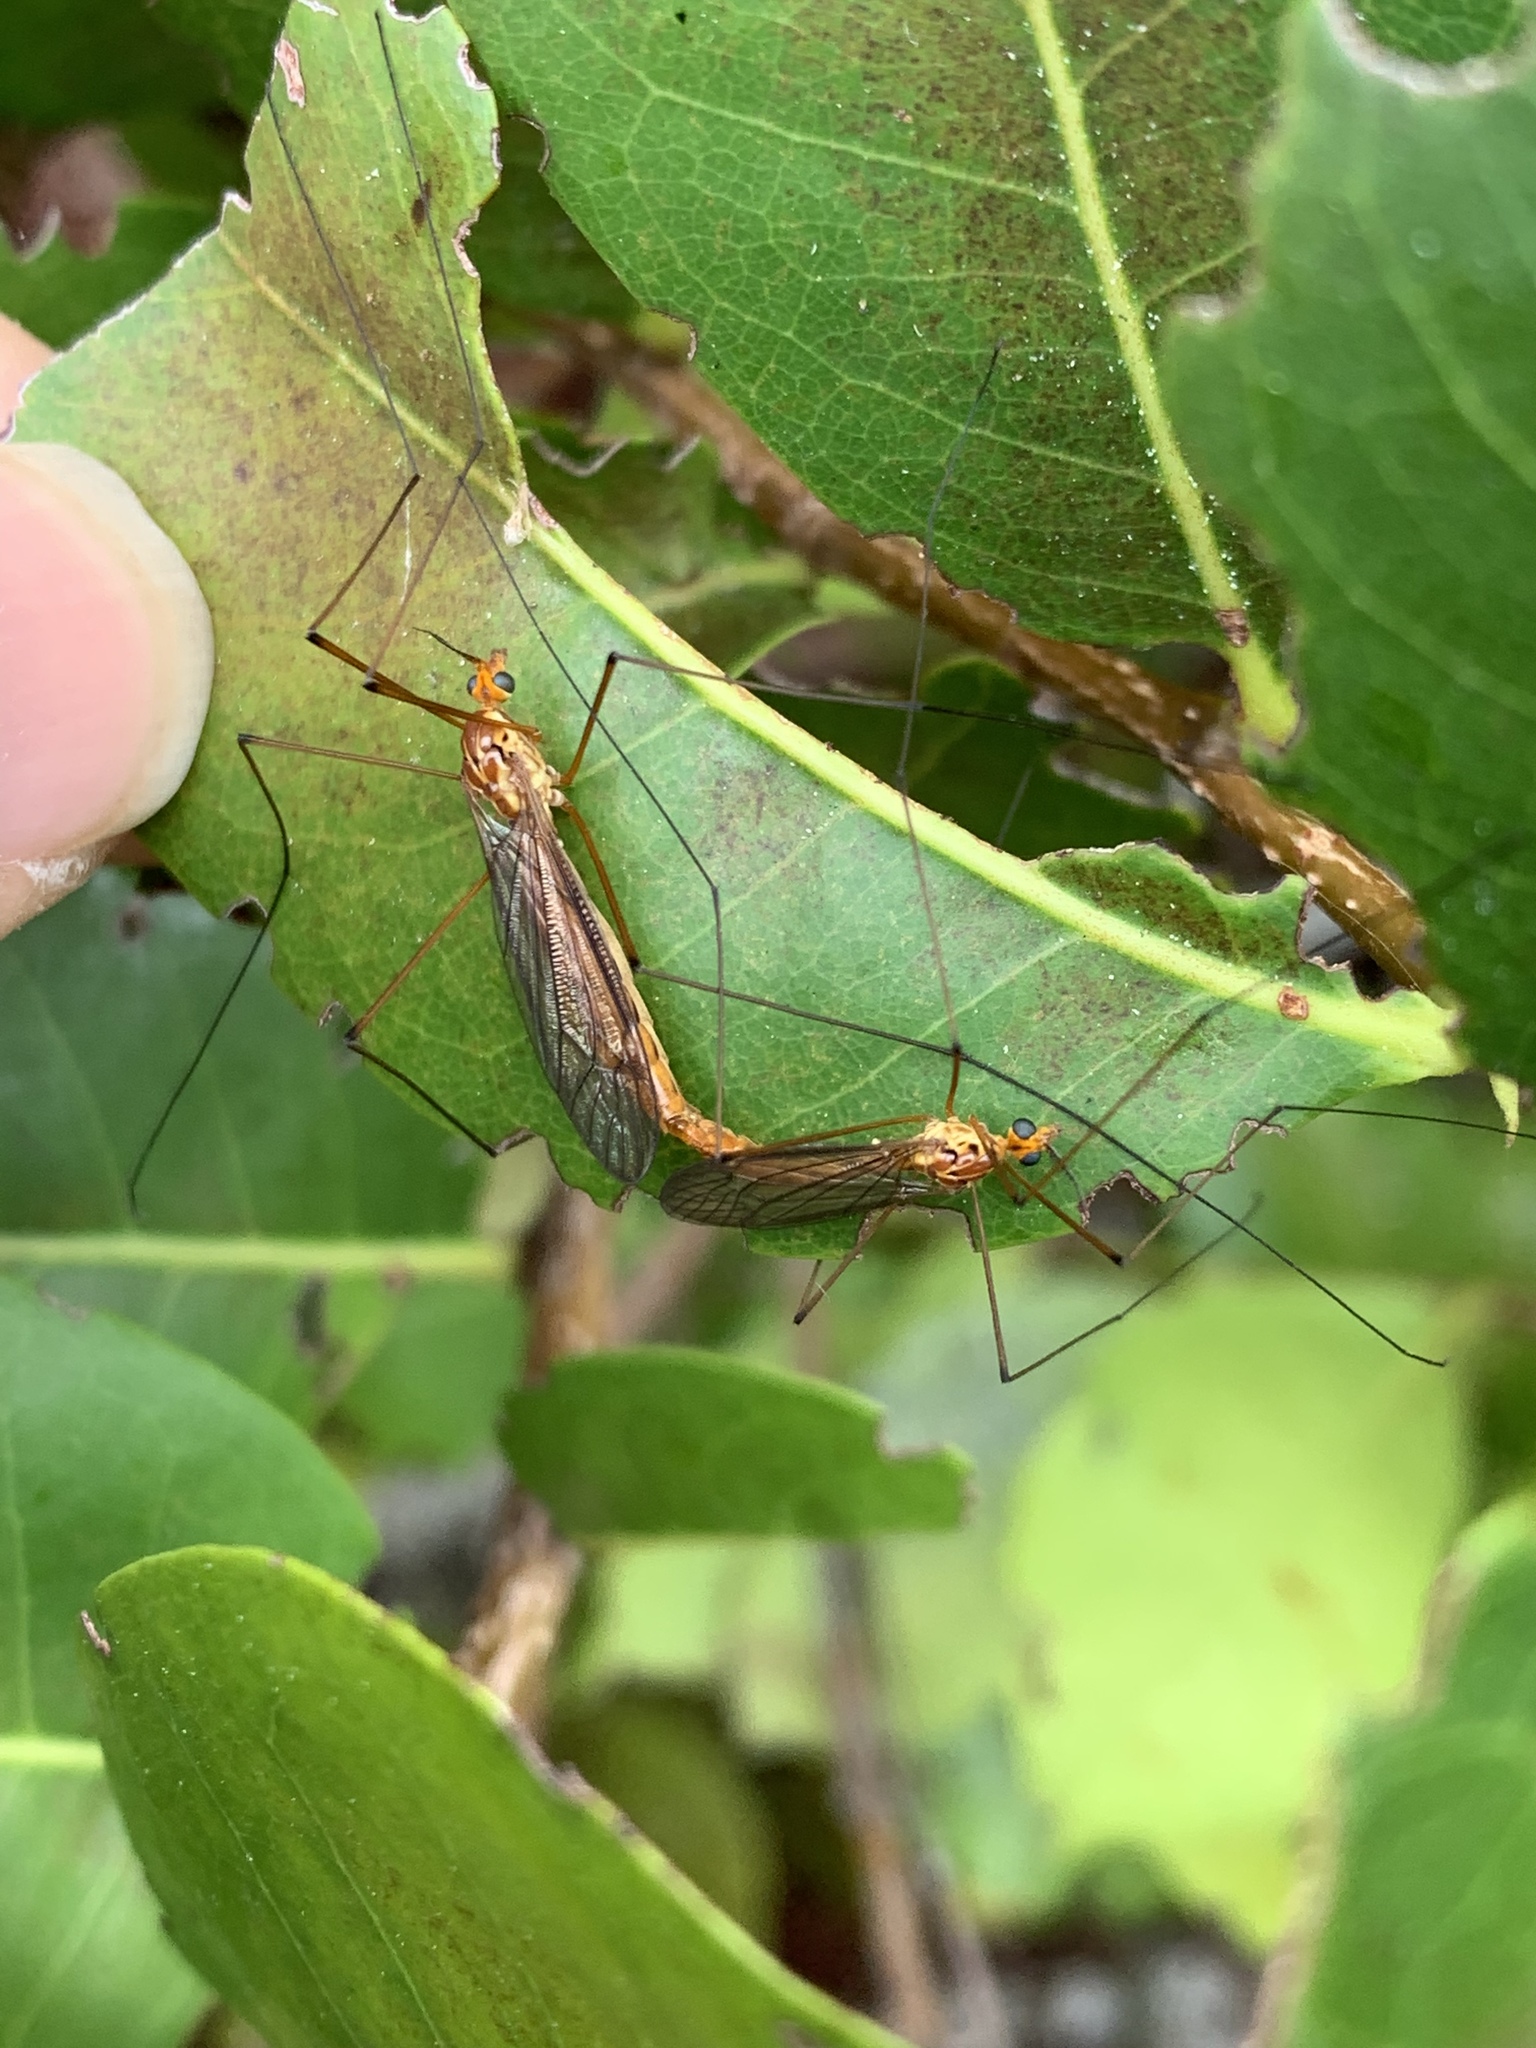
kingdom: Animalia
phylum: Arthropoda
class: Insecta
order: Diptera
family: Tipulidae
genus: Nephrotoma
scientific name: Nephrotoma suturalis
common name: Cranefly
